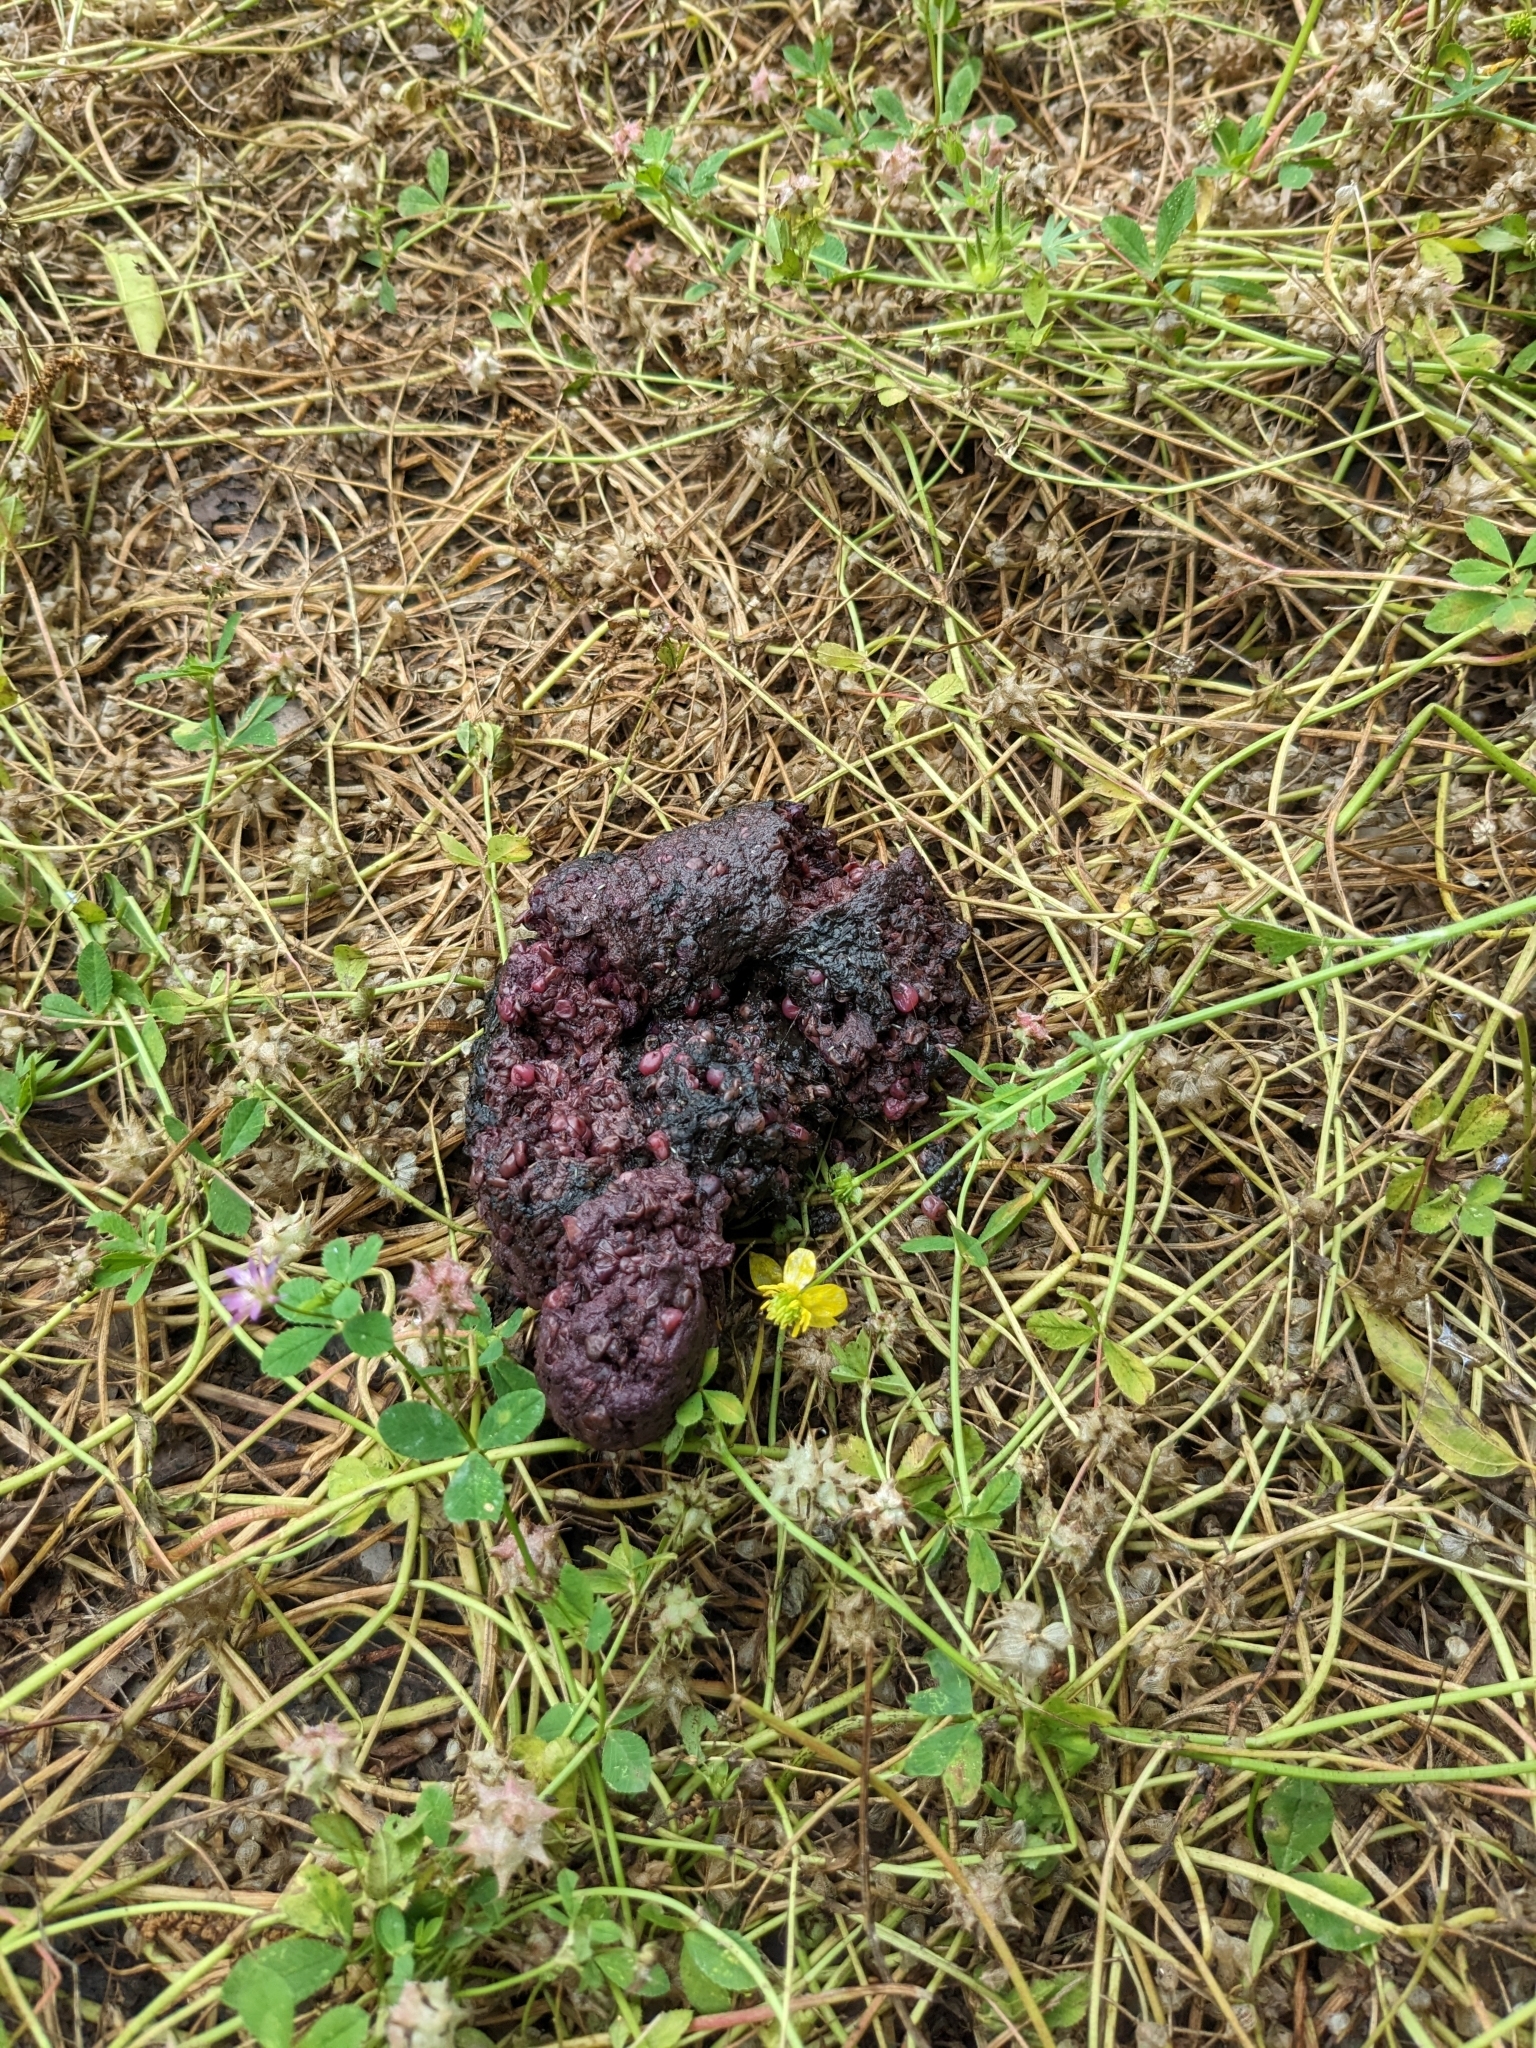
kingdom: Animalia
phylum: Chordata
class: Mammalia
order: Carnivora
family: Ursidae
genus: Ursus
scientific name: Ursus americanus
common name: American black bear
